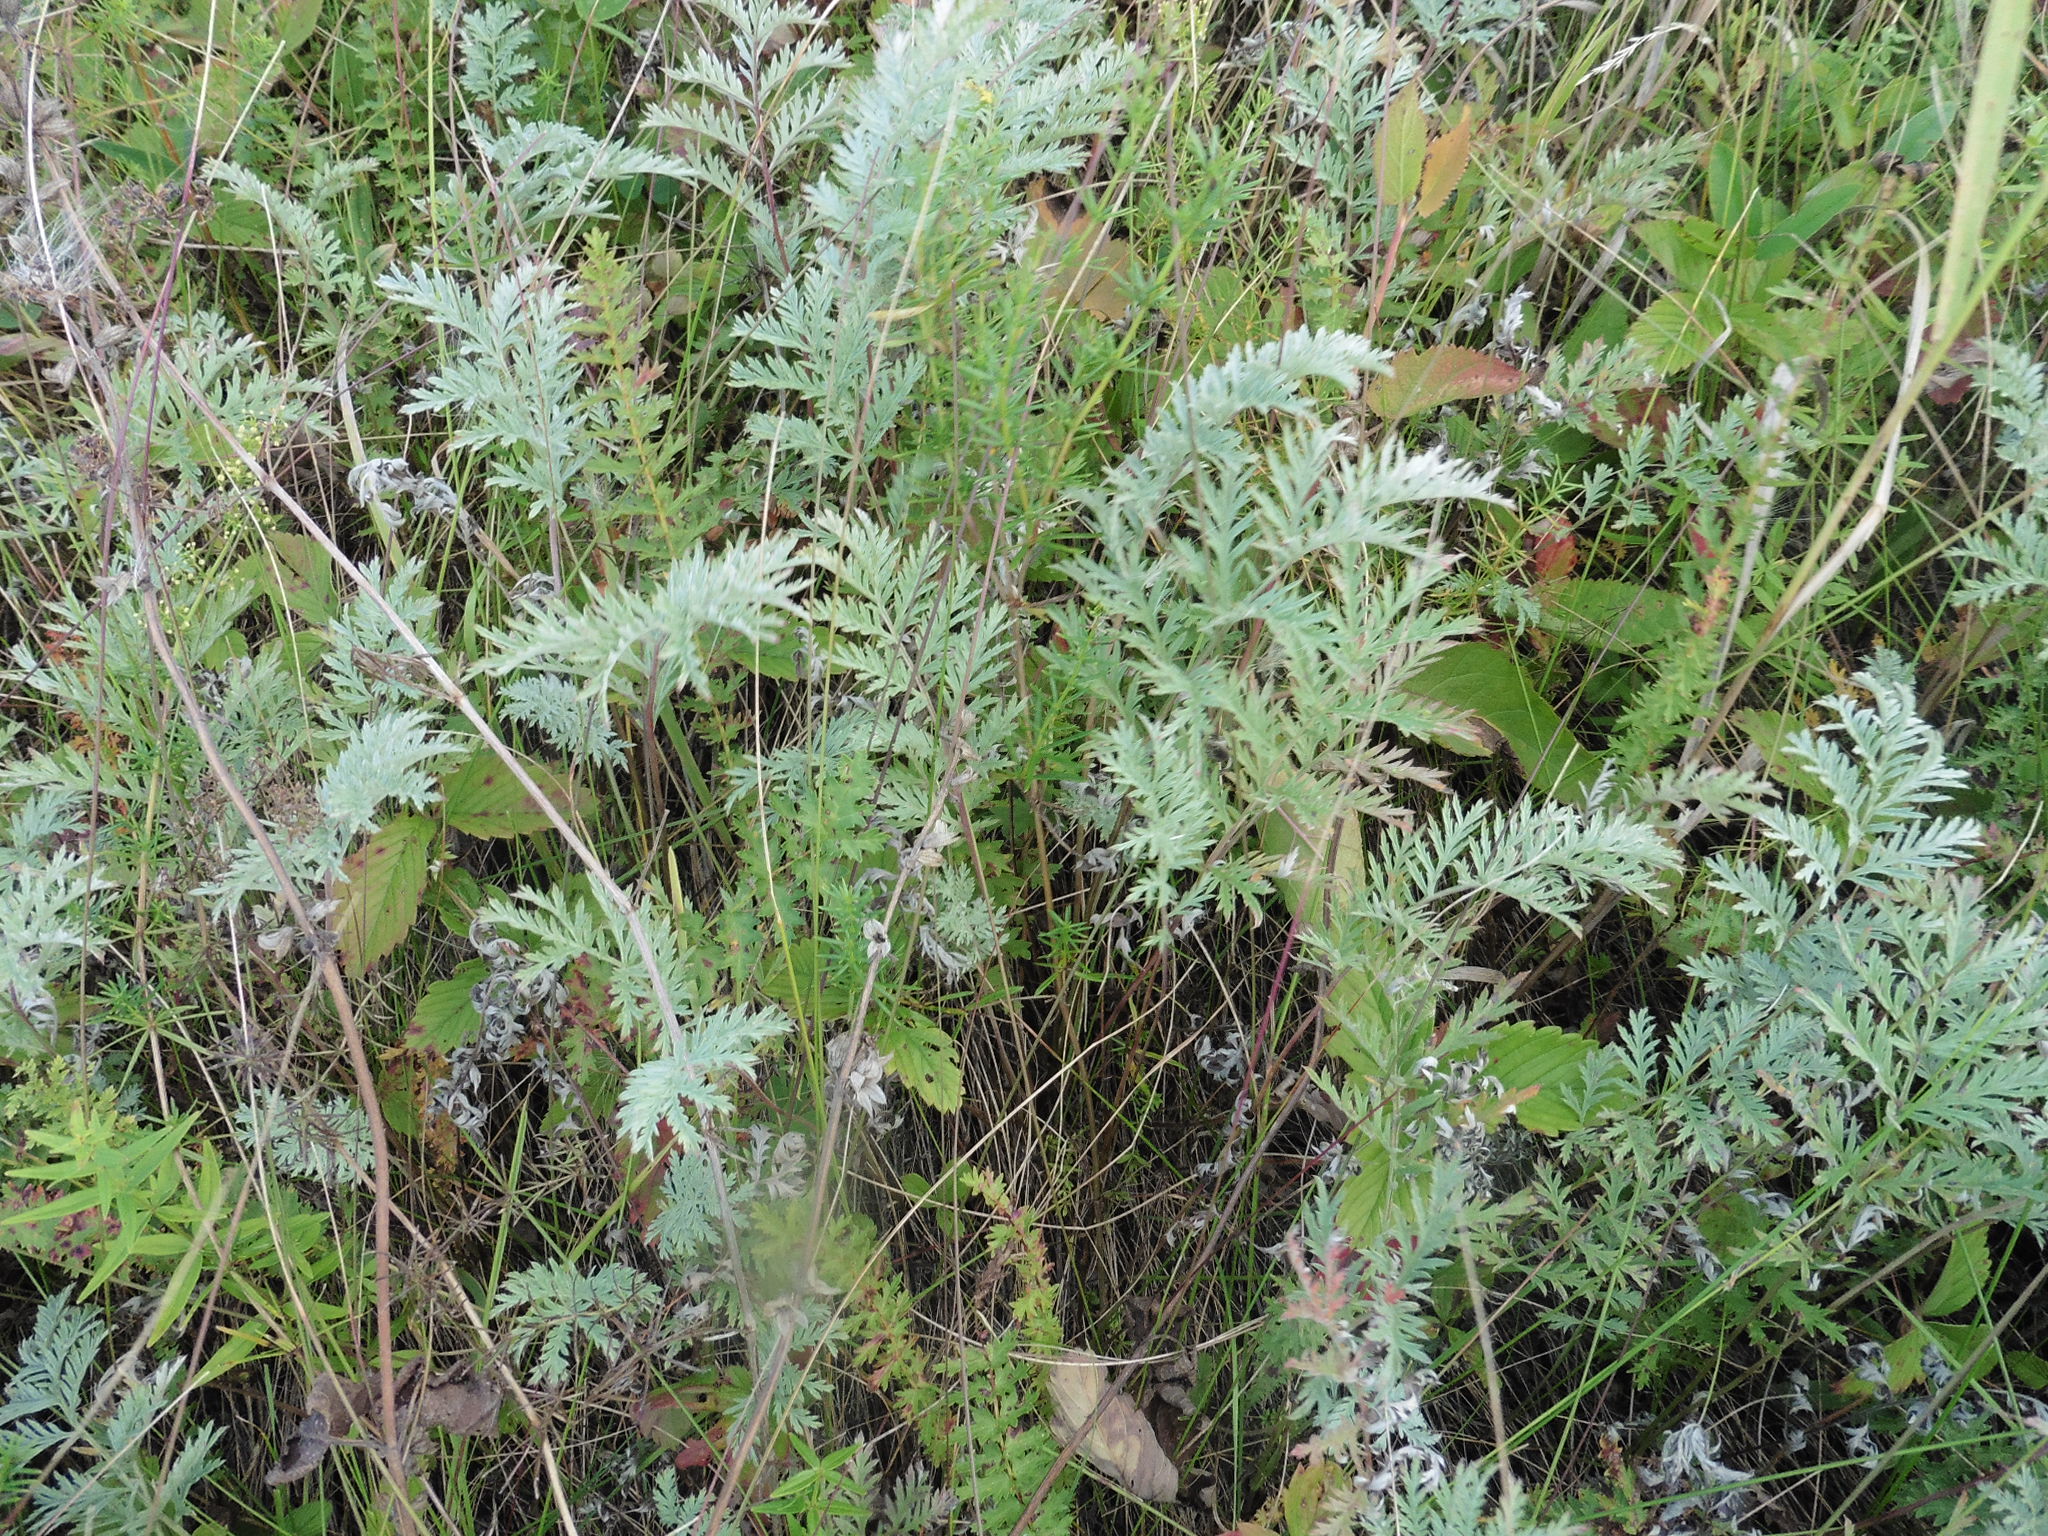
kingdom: Plantae
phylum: Tracheophyta
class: Magnoliopsida
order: Asterales
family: Asteraceae
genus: Artemisia
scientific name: Artemisia armeniaca
